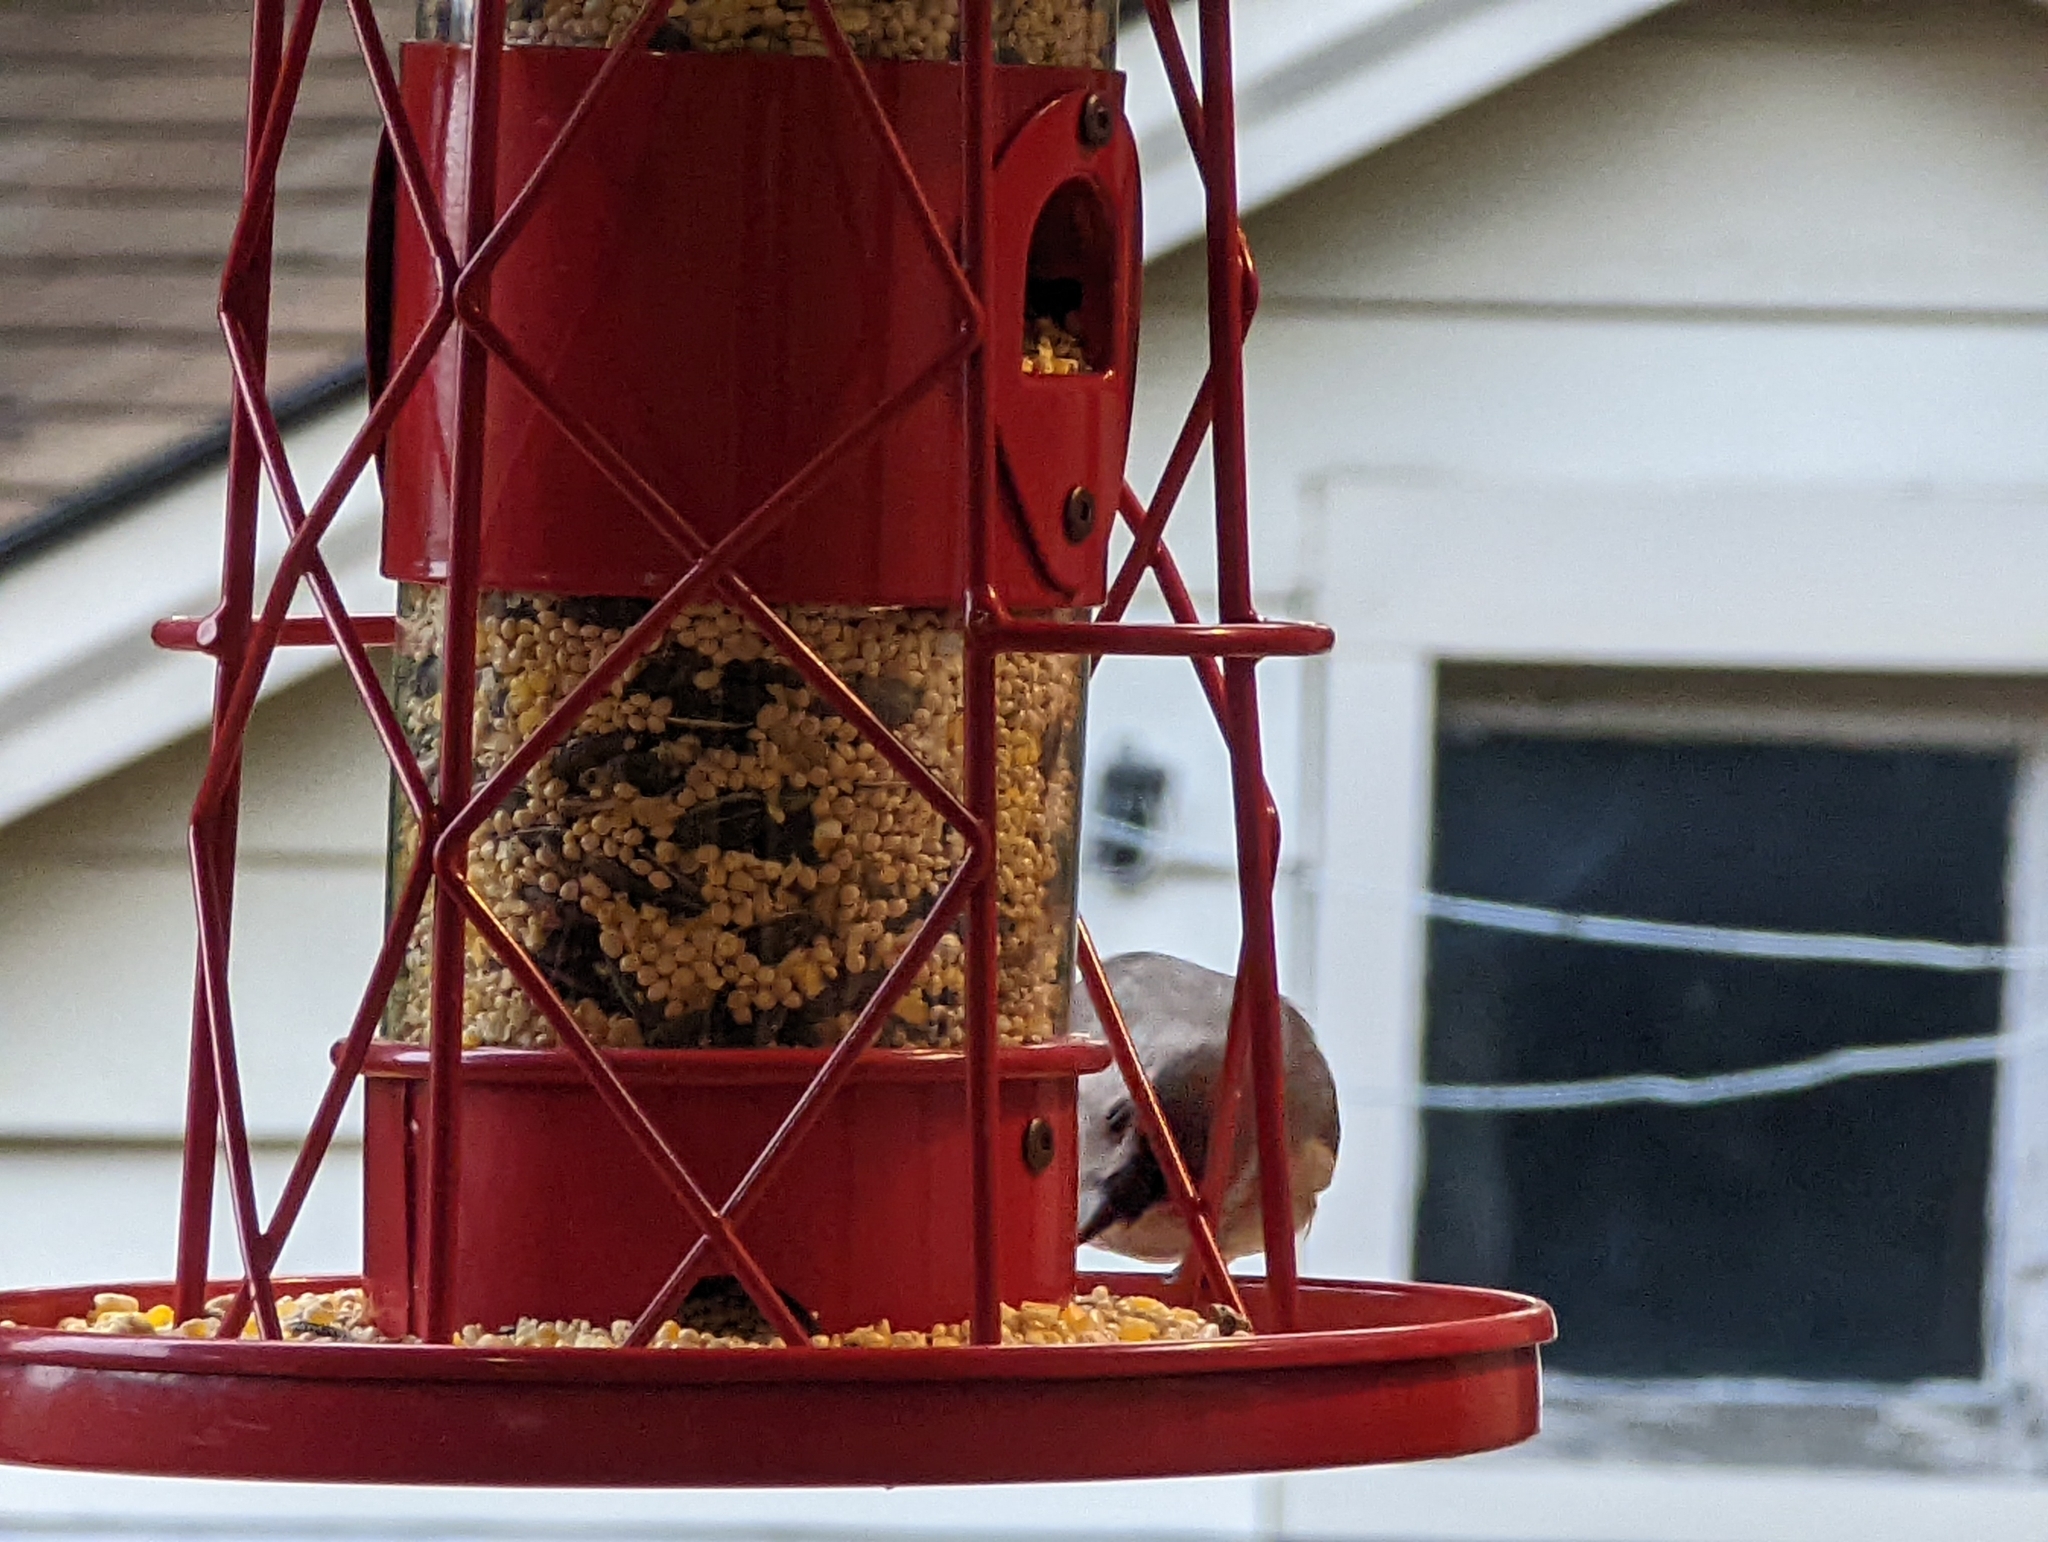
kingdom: Animalia
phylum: Chordata
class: Aves
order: Passeriformes
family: Paridae
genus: Baeolophus
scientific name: Baeolophus bicolor
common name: Tufted titmouse
